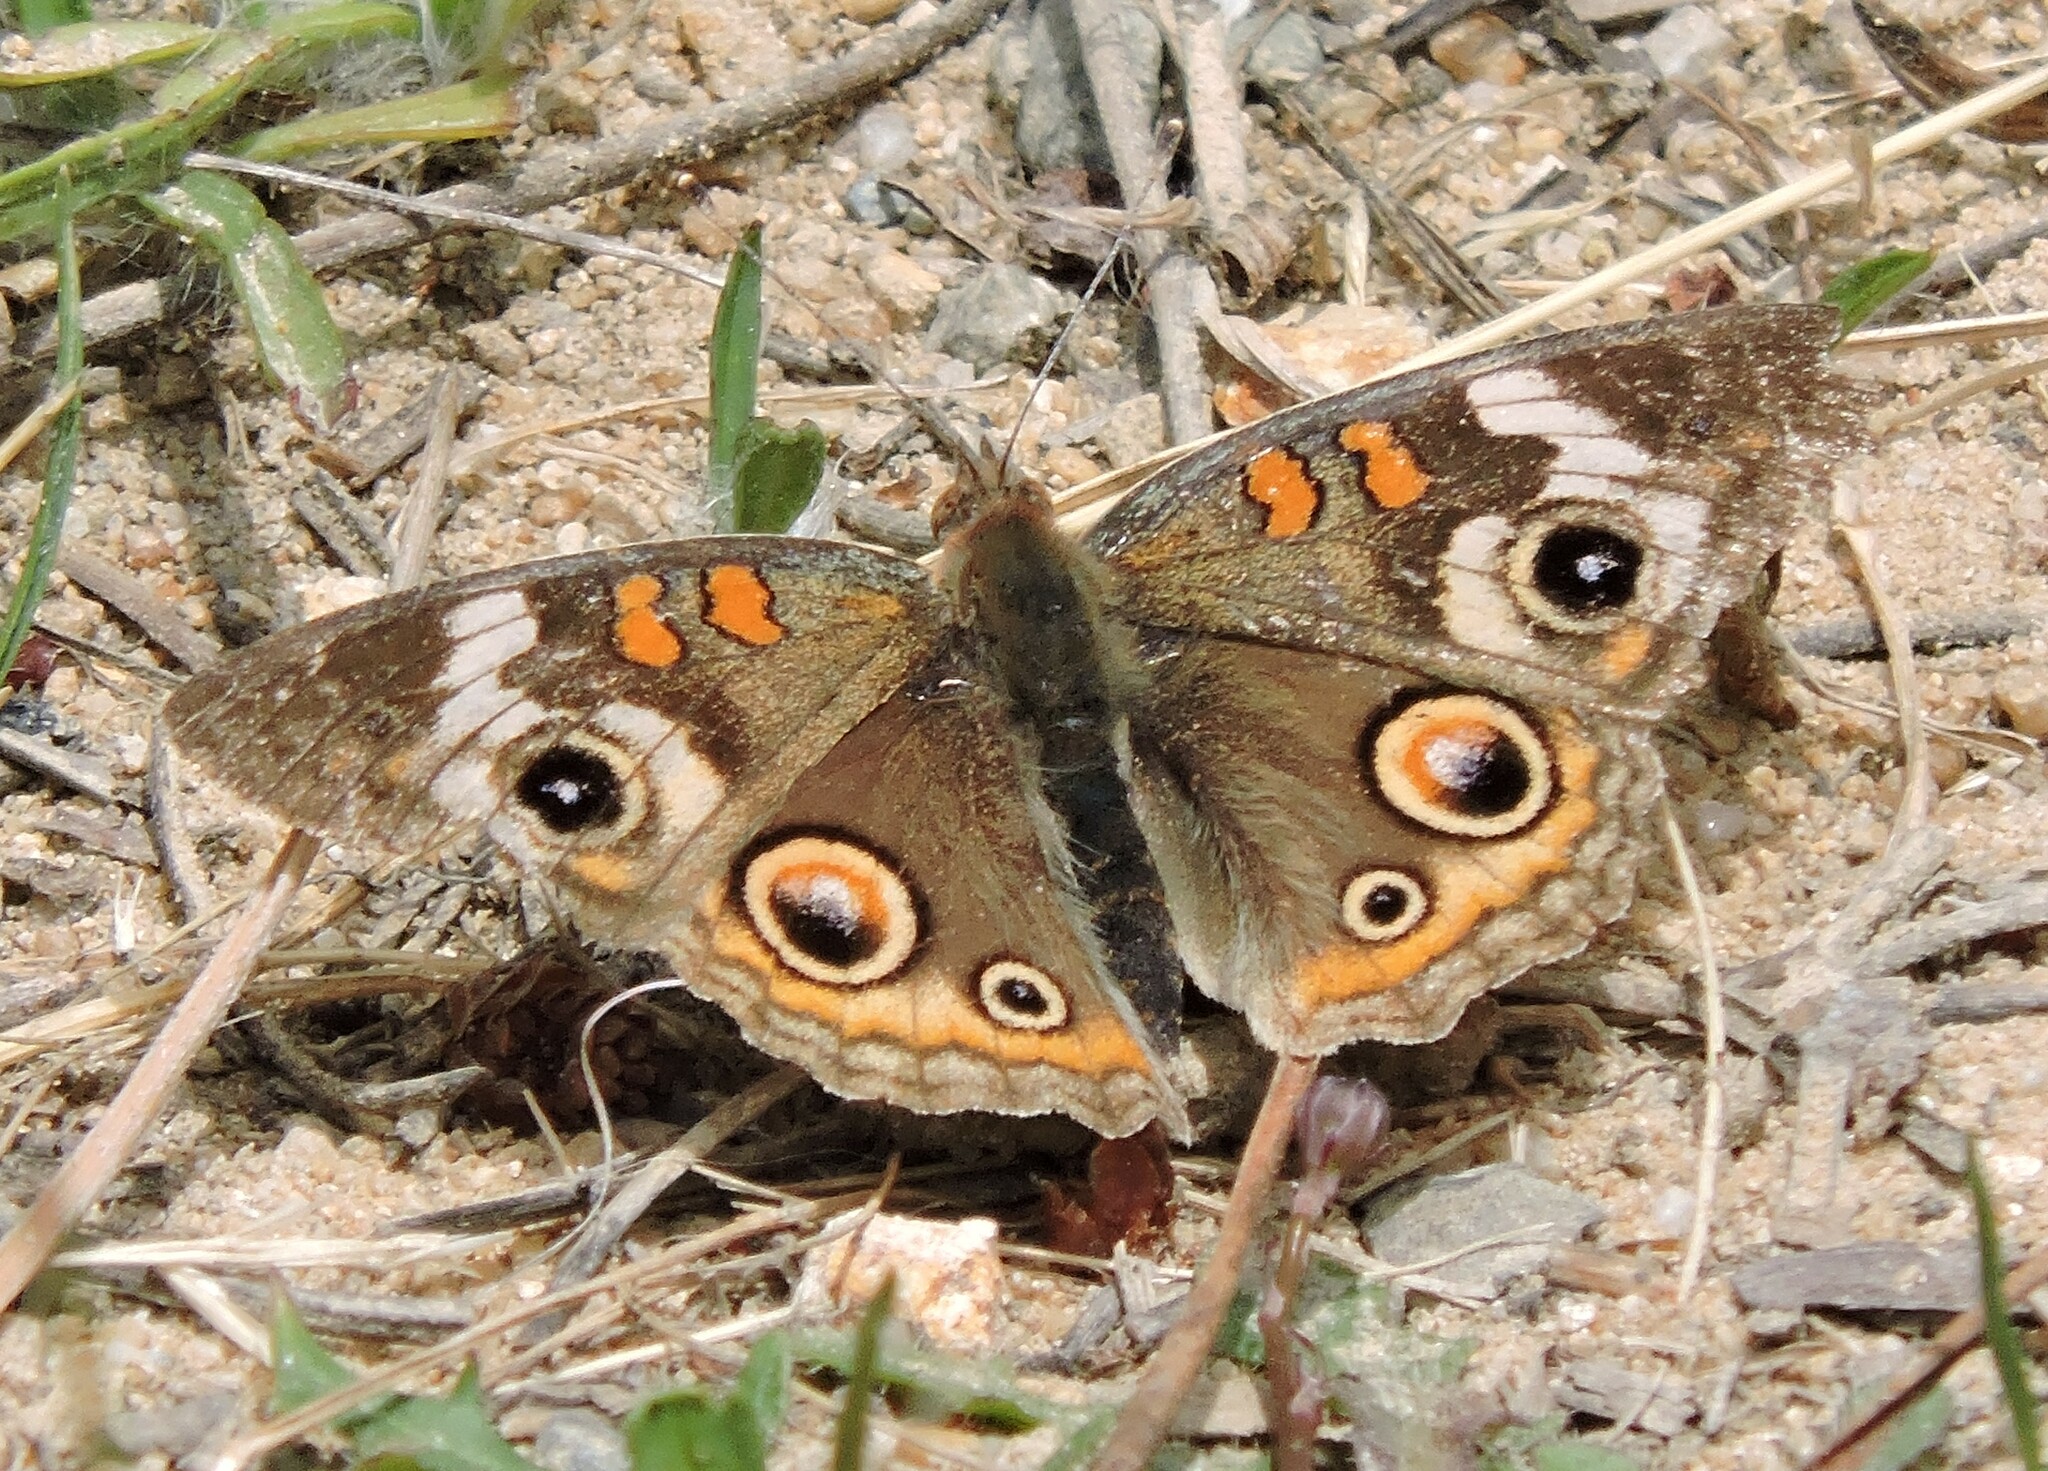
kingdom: Animalia
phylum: Arthropoda
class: Insecta
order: Lepidoptera
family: Nymphalidae
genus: Junonia
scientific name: Junonia grisea
